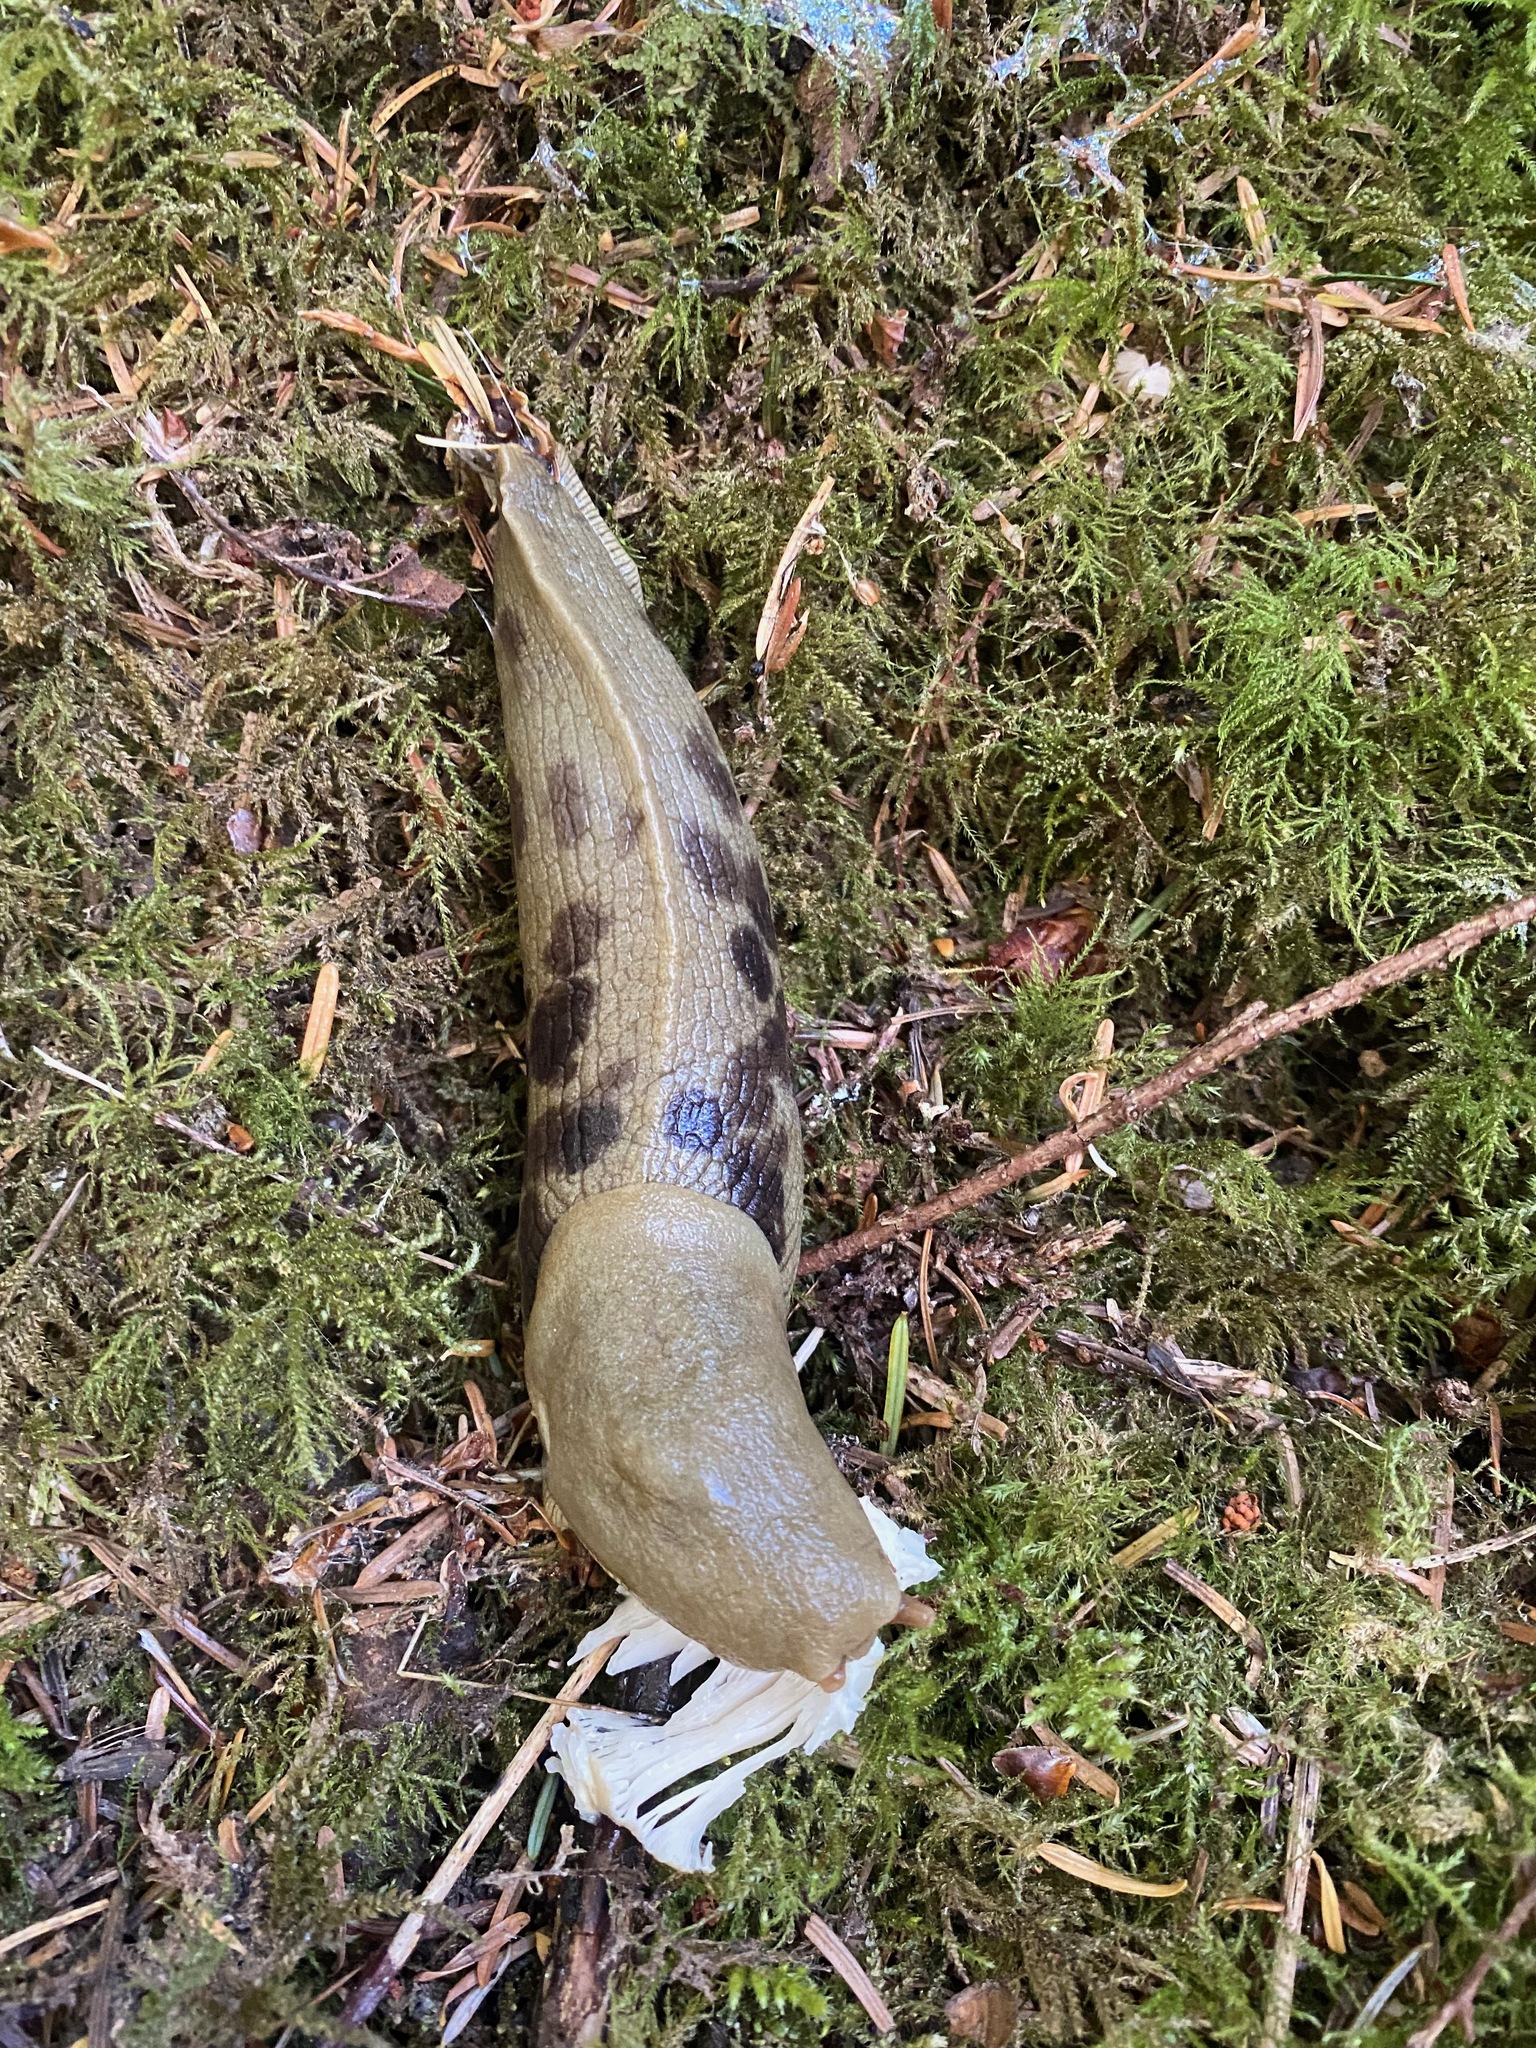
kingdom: Animalia
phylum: Mollusca
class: Gastropoda
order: Stylommatophora
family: Ariolimacidae
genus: Ariolimax
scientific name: Ariolimax columbianus
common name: Pacific banana slug
